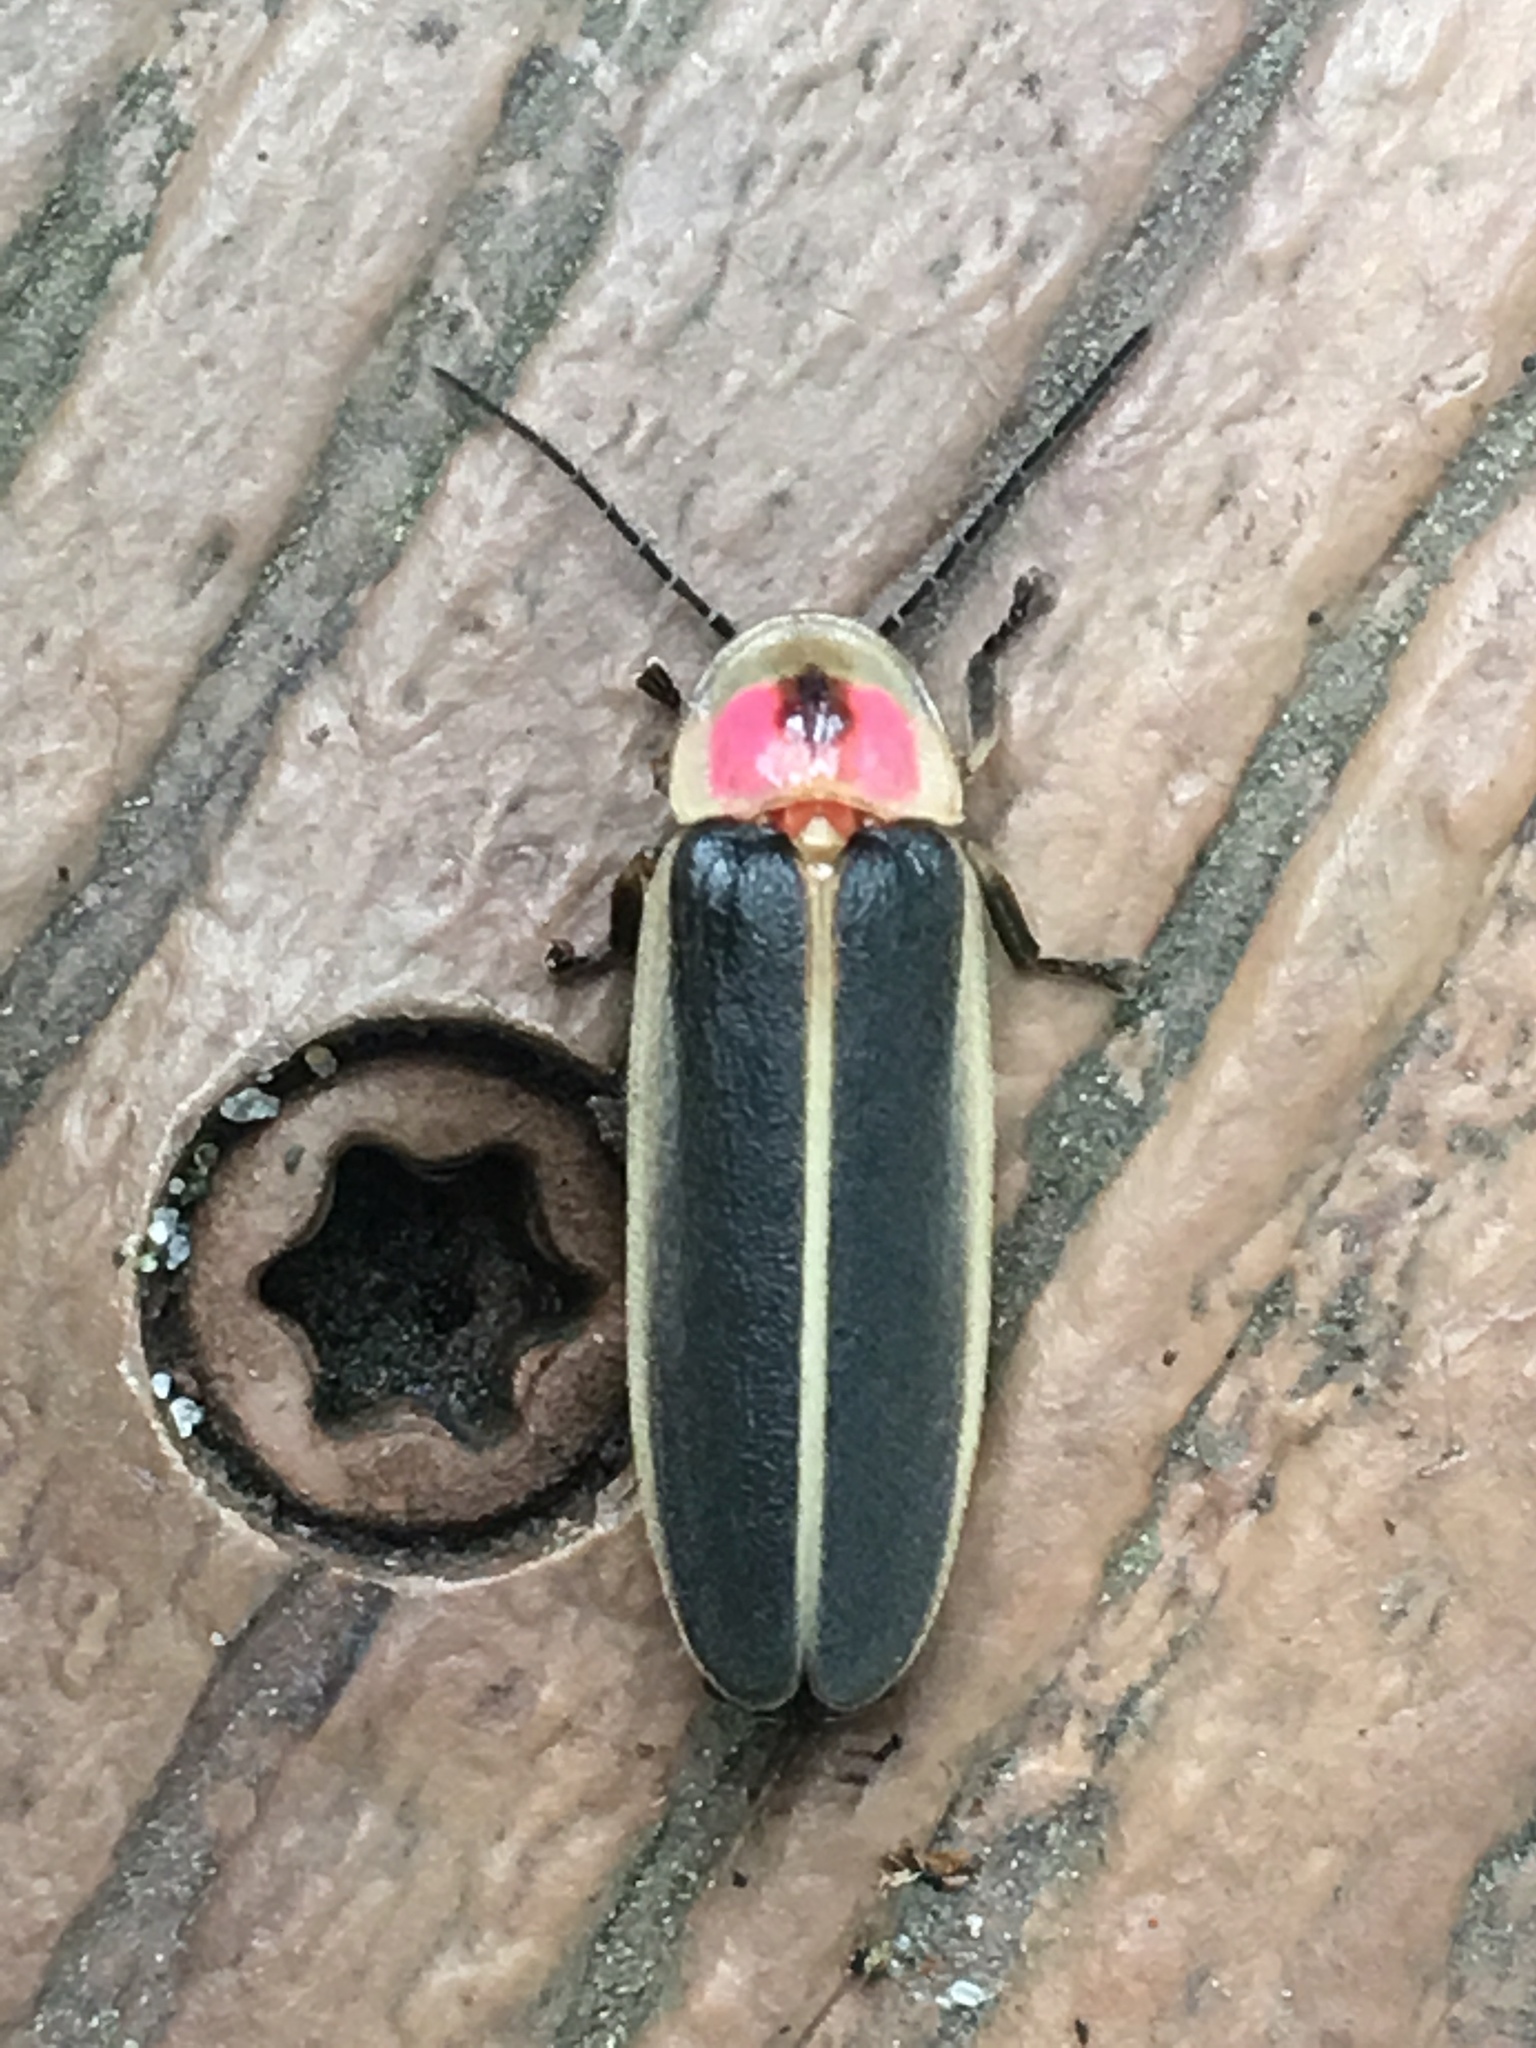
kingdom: Animalia
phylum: Arthropoda
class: Insecta
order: Coleoptera
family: Lampyridae
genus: Photinus
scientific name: Photinus pyralis
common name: Big dipper firefly
